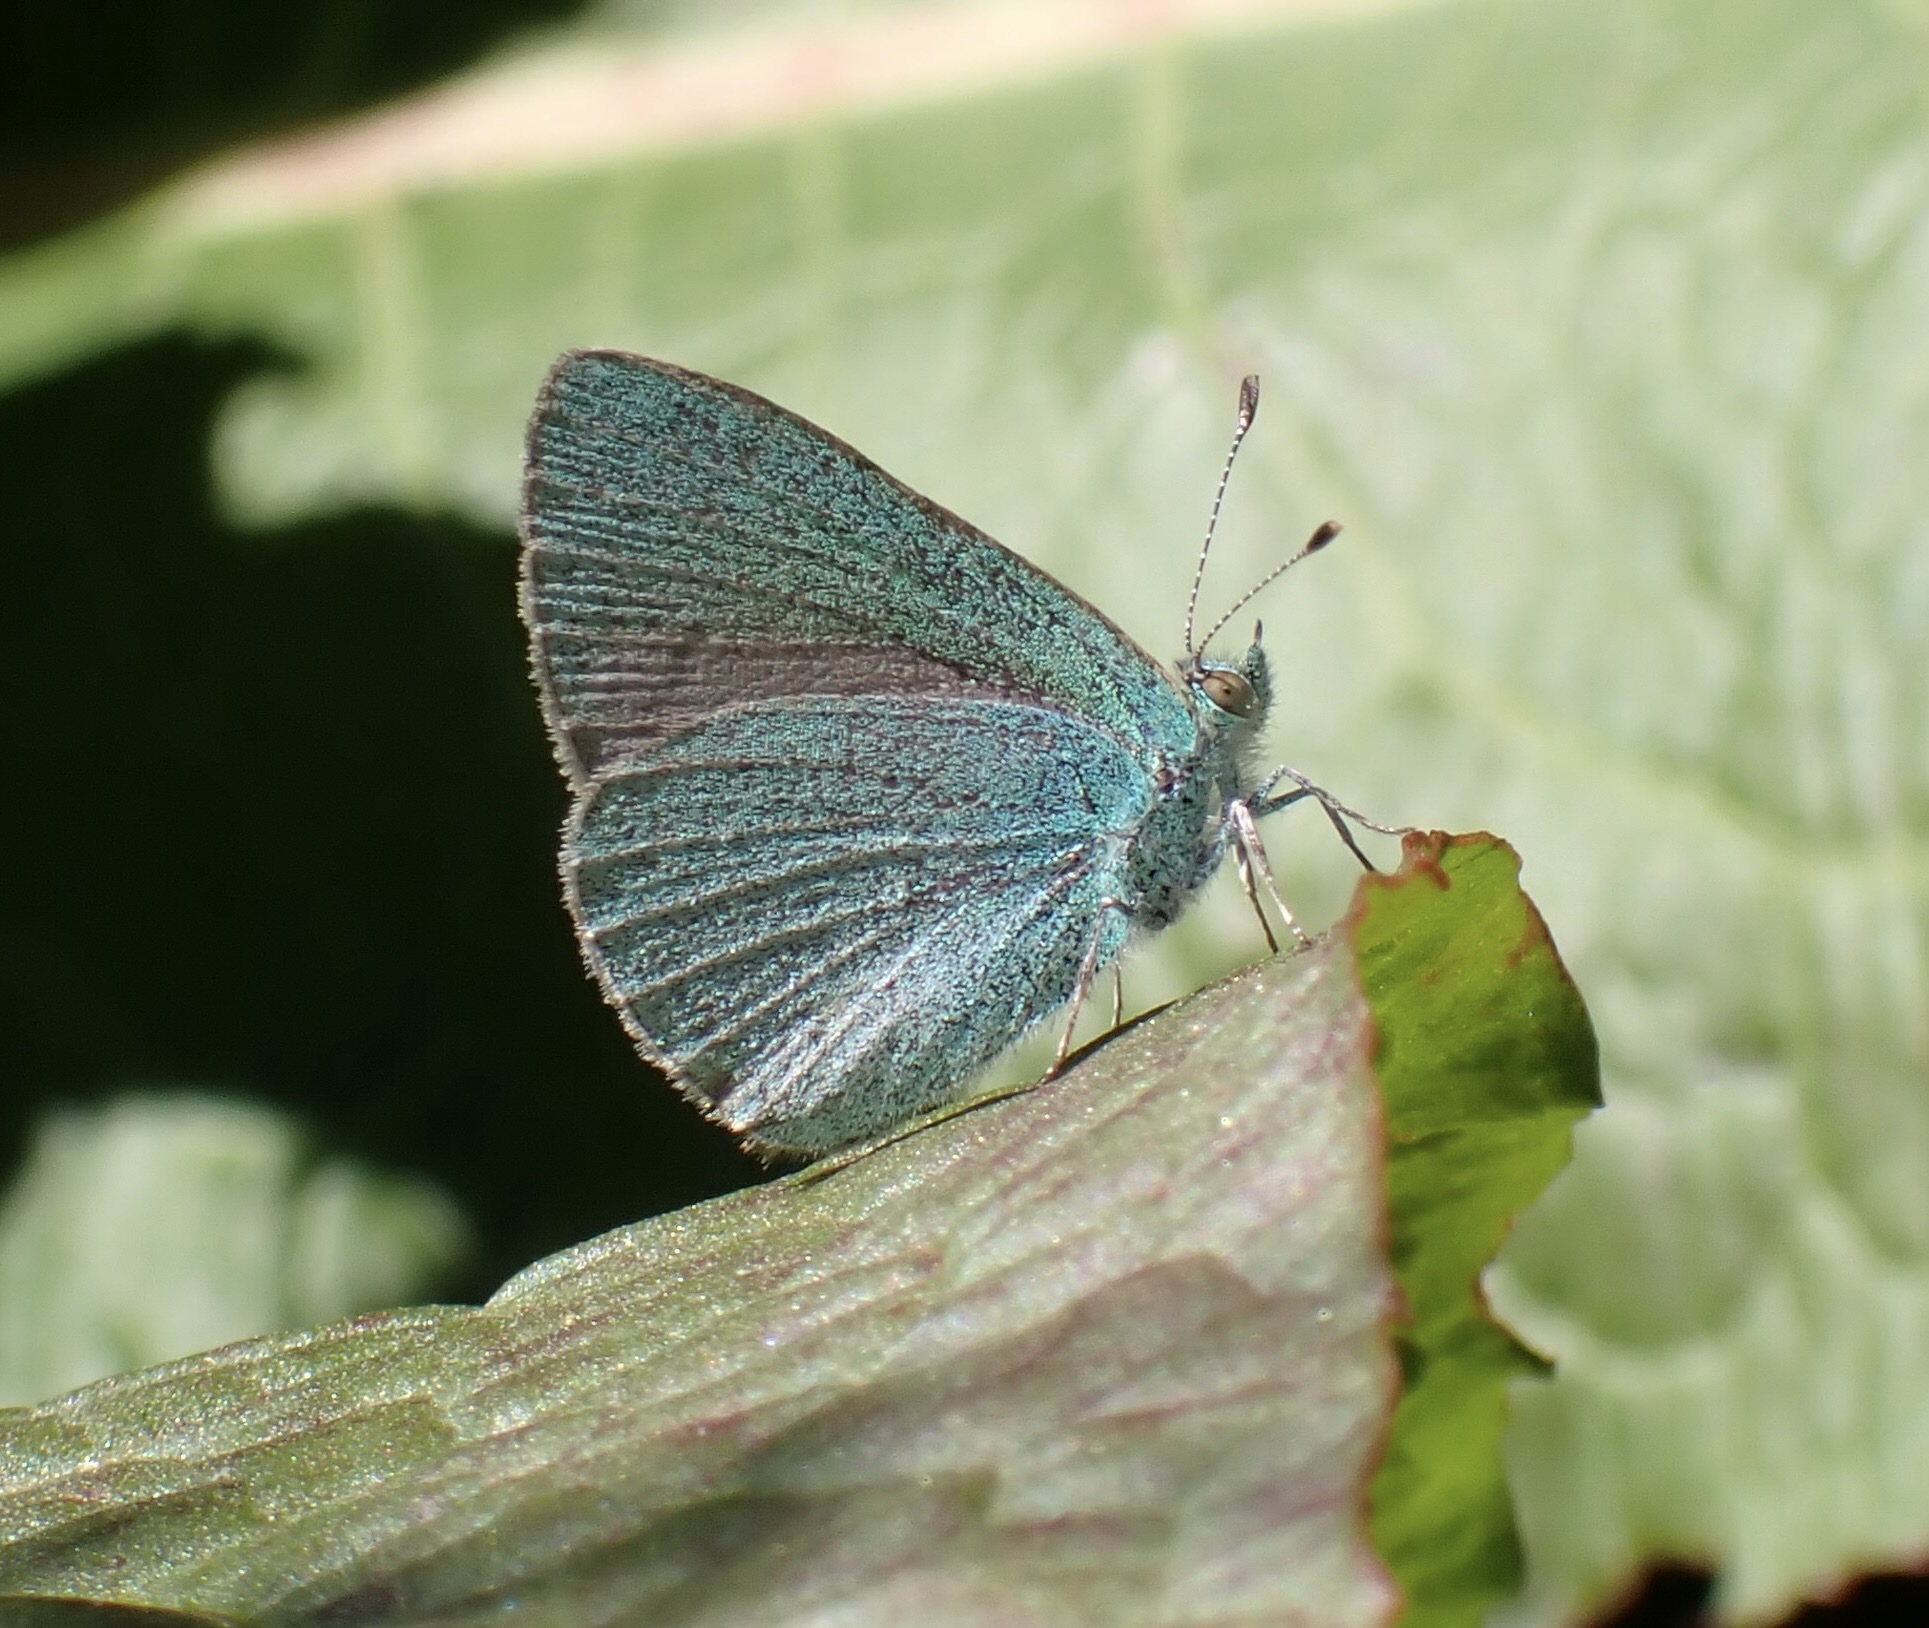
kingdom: Animalia
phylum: Arthropoda
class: Insecta
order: Lepidoptera
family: Lycaenidae
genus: Udara
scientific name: Udara blackburni
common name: Blackburn's blue
